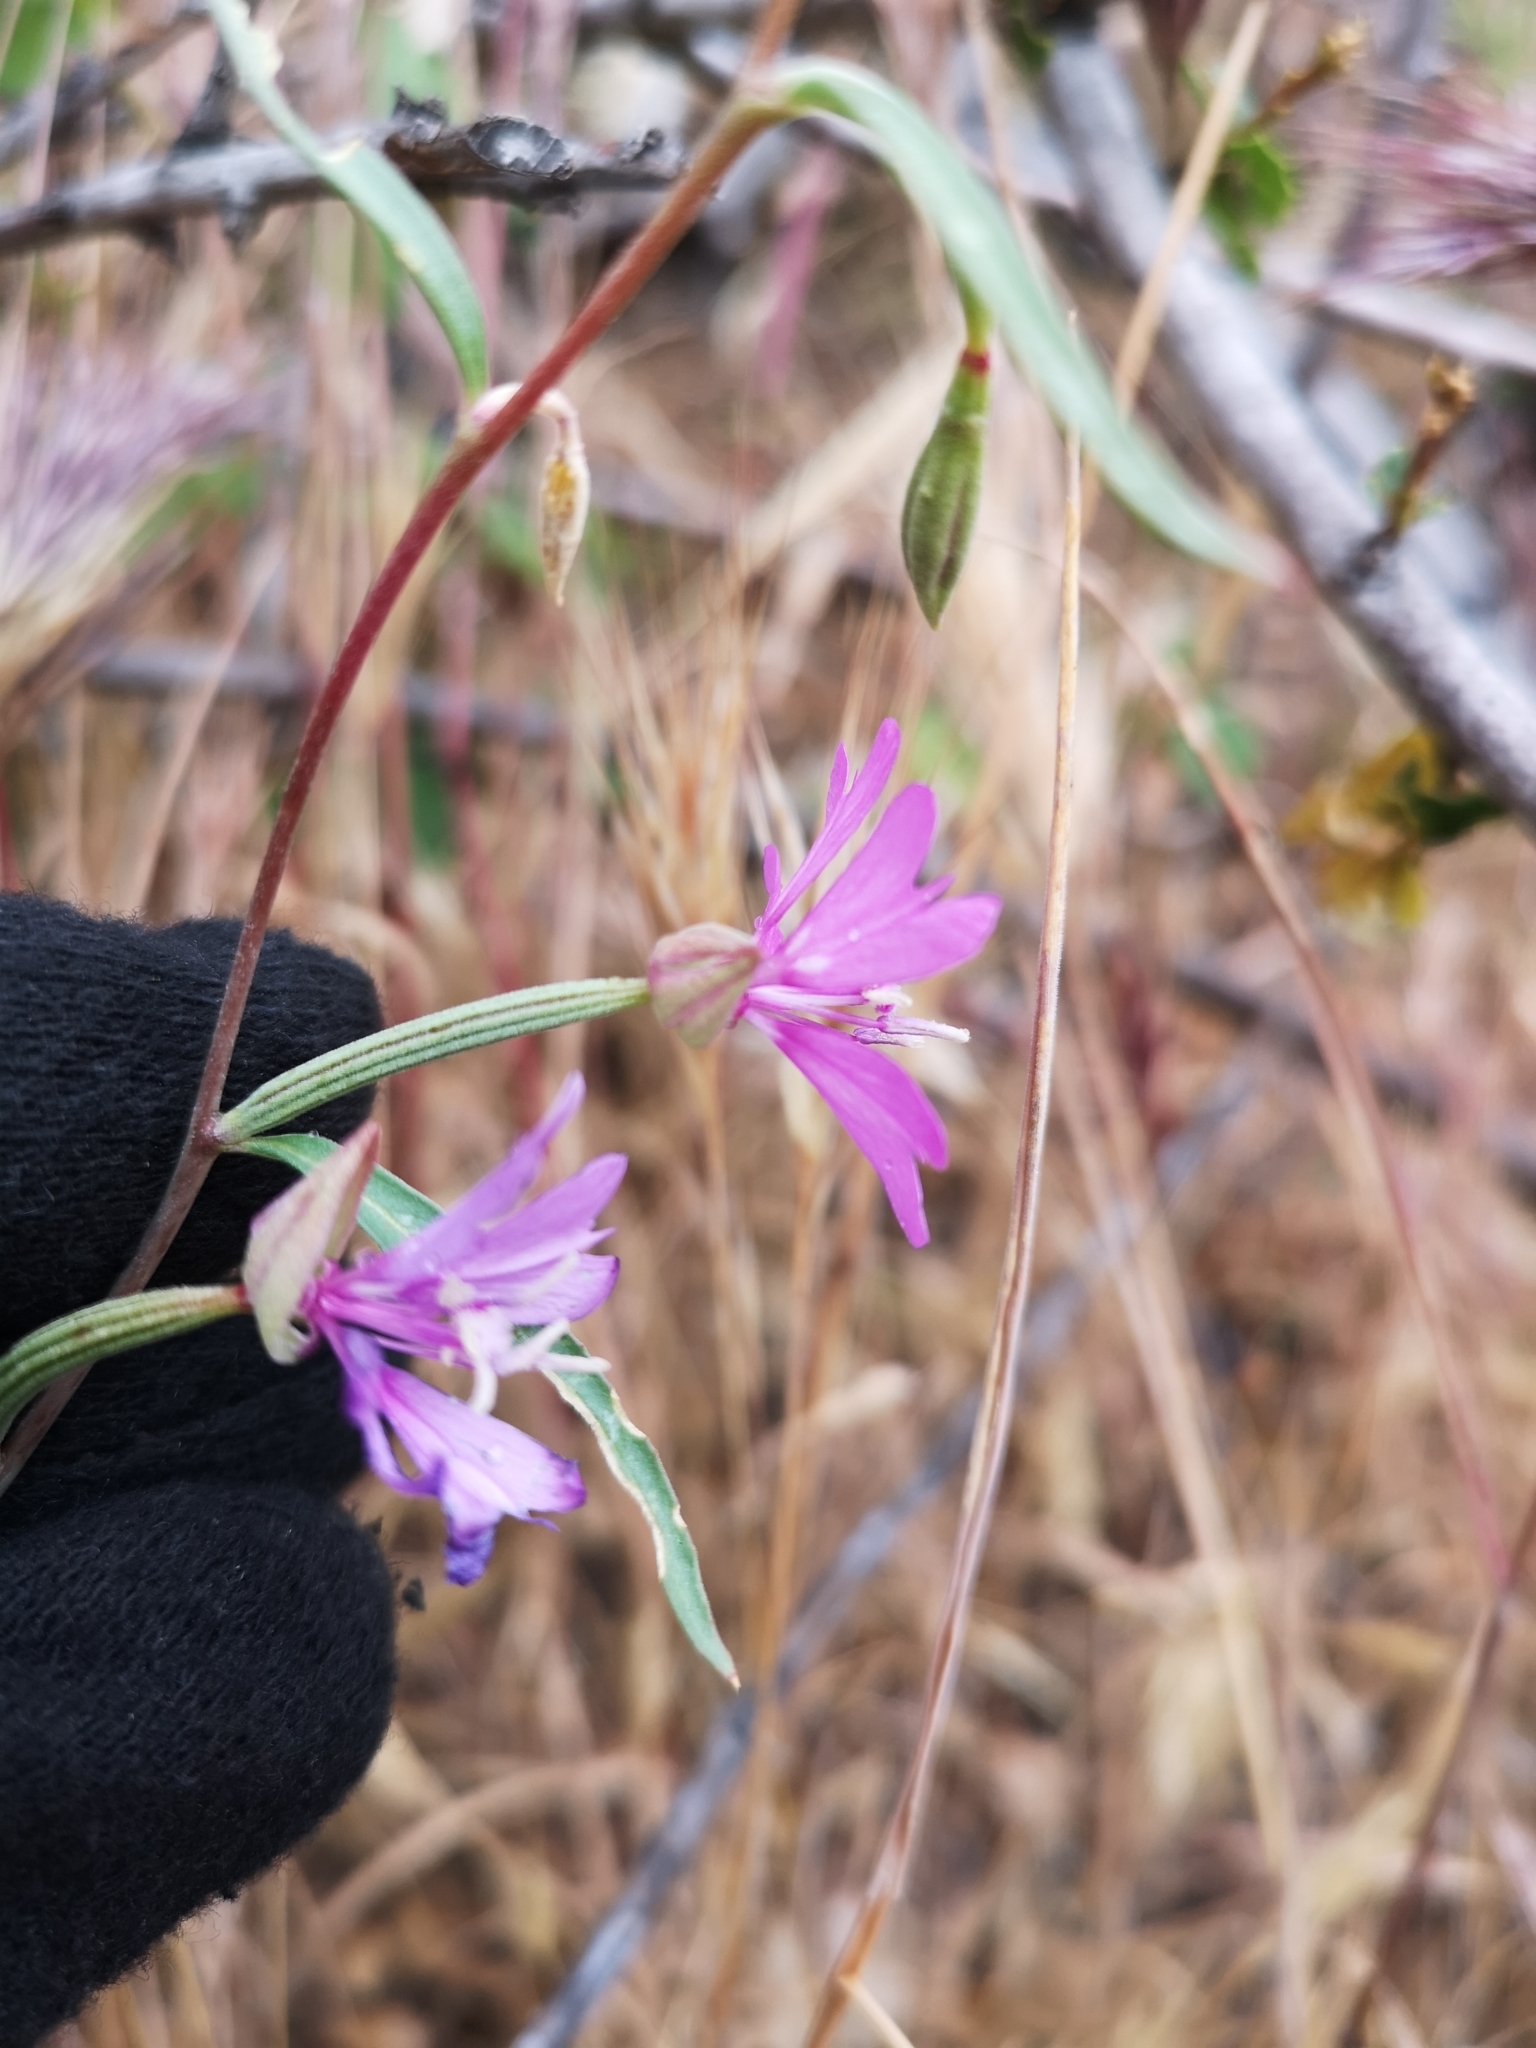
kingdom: Plantae
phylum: Tracheophyta
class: Magnoliopsida
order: Myrtales
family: Onagraceae
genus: Clarkia
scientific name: Clarkia xantiana
